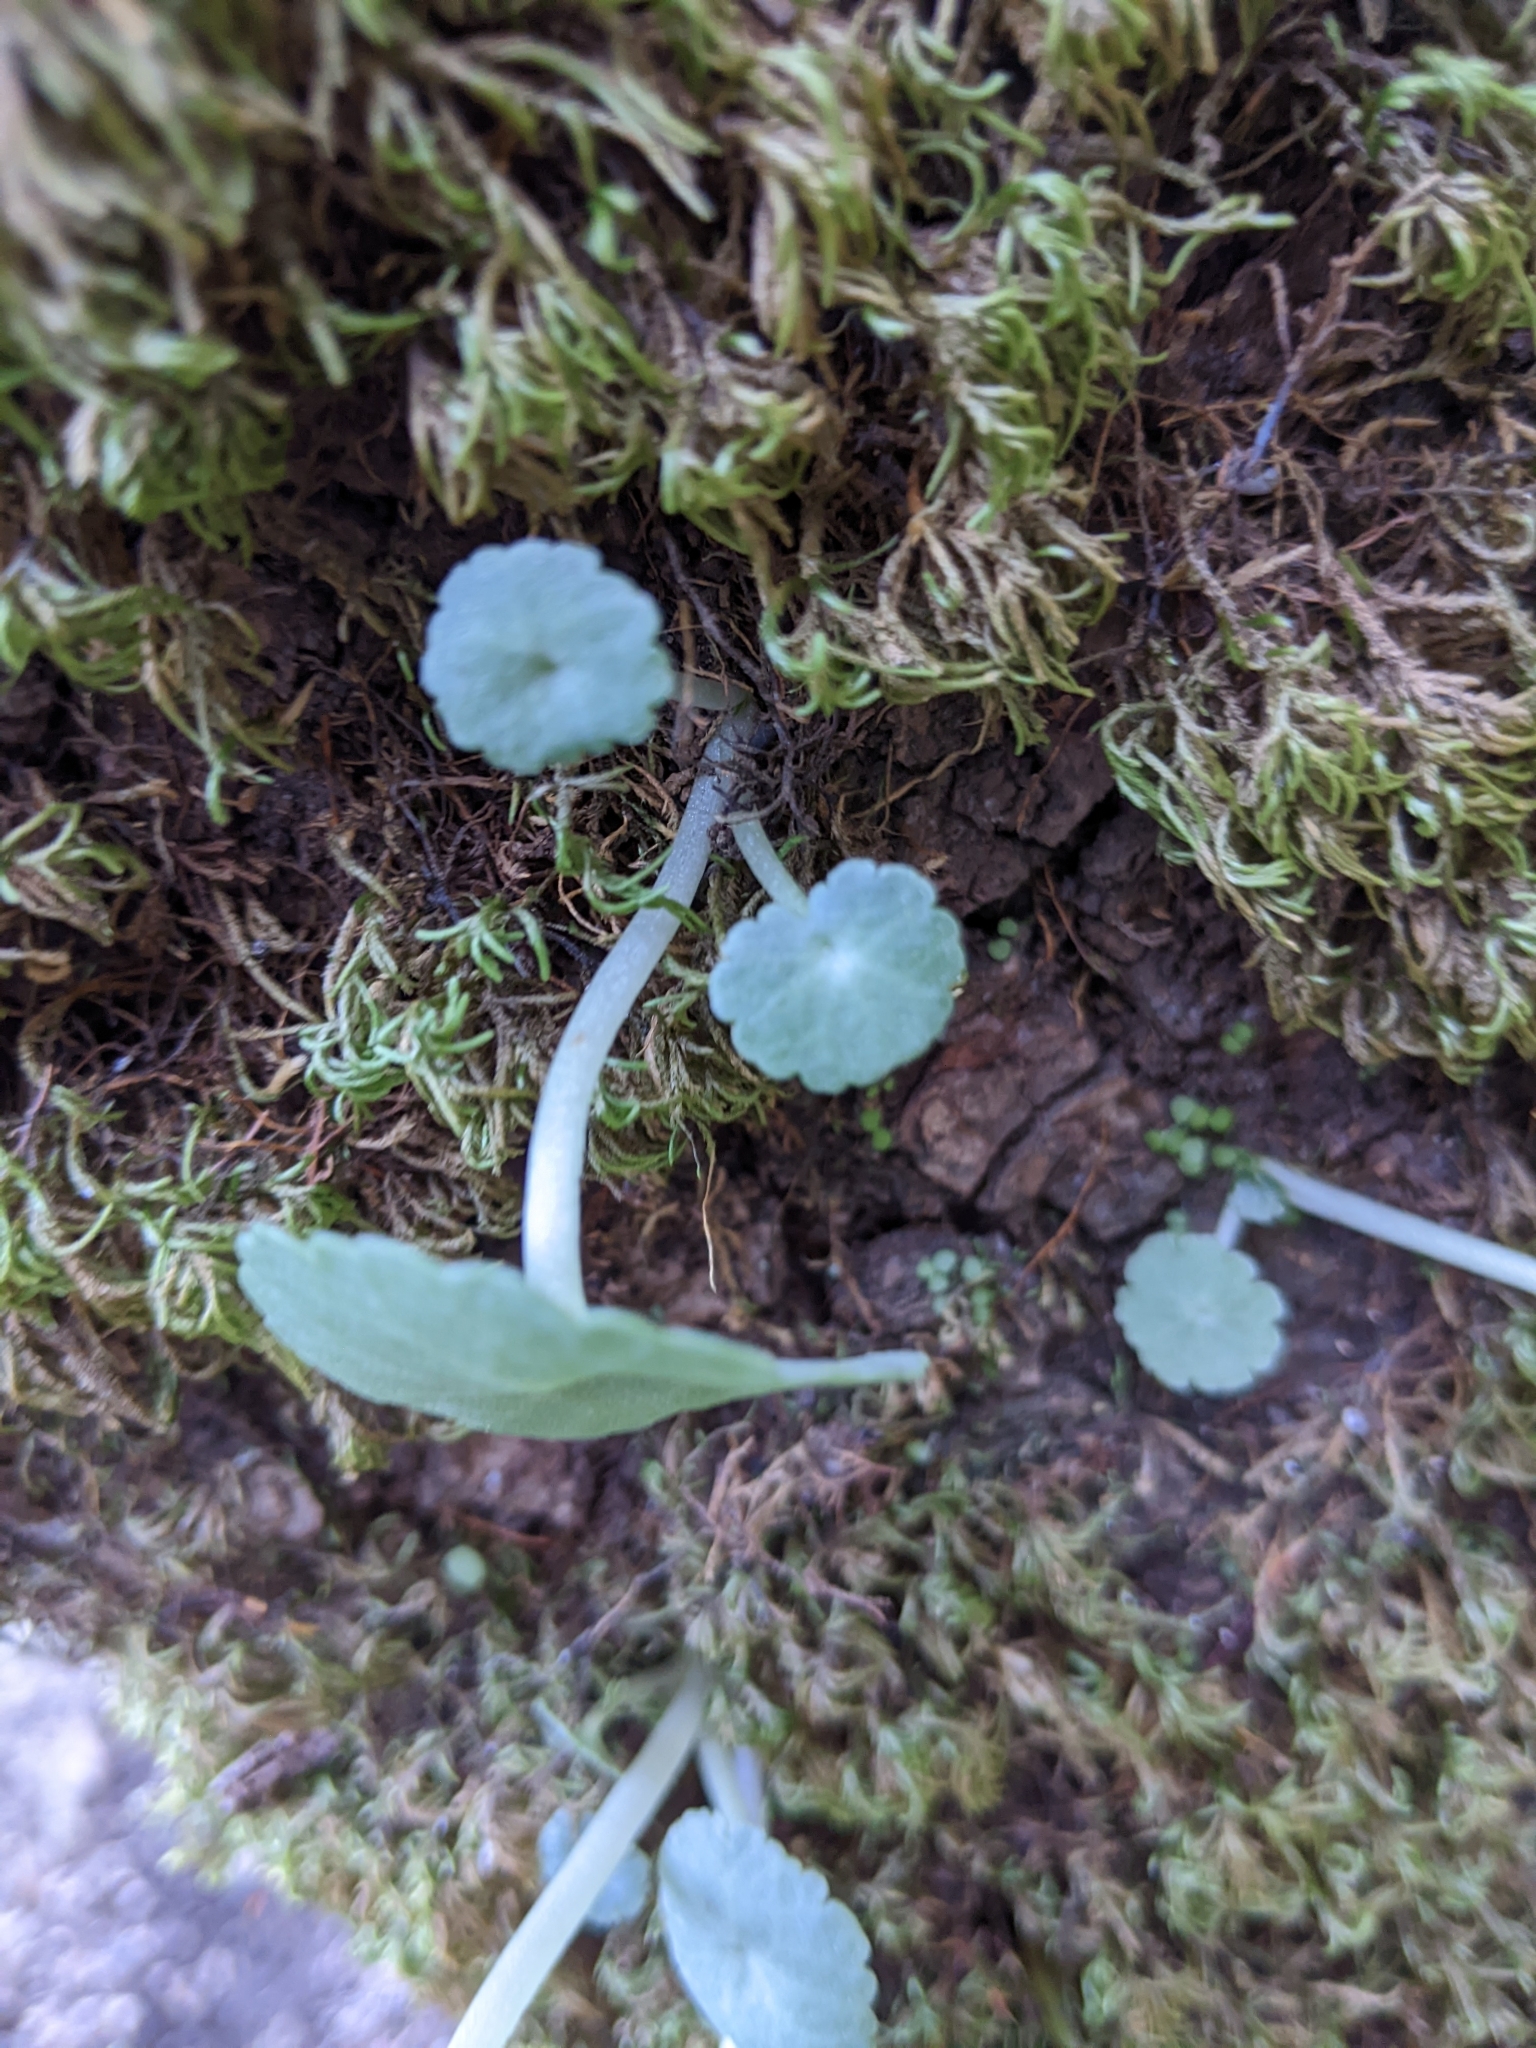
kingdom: Plantae
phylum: Tracheophyta
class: Magnoliopsida
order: Saxifragales
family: Crassulaceae
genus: Umbilicus
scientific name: Umbilicus rupestris
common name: Navelwort
